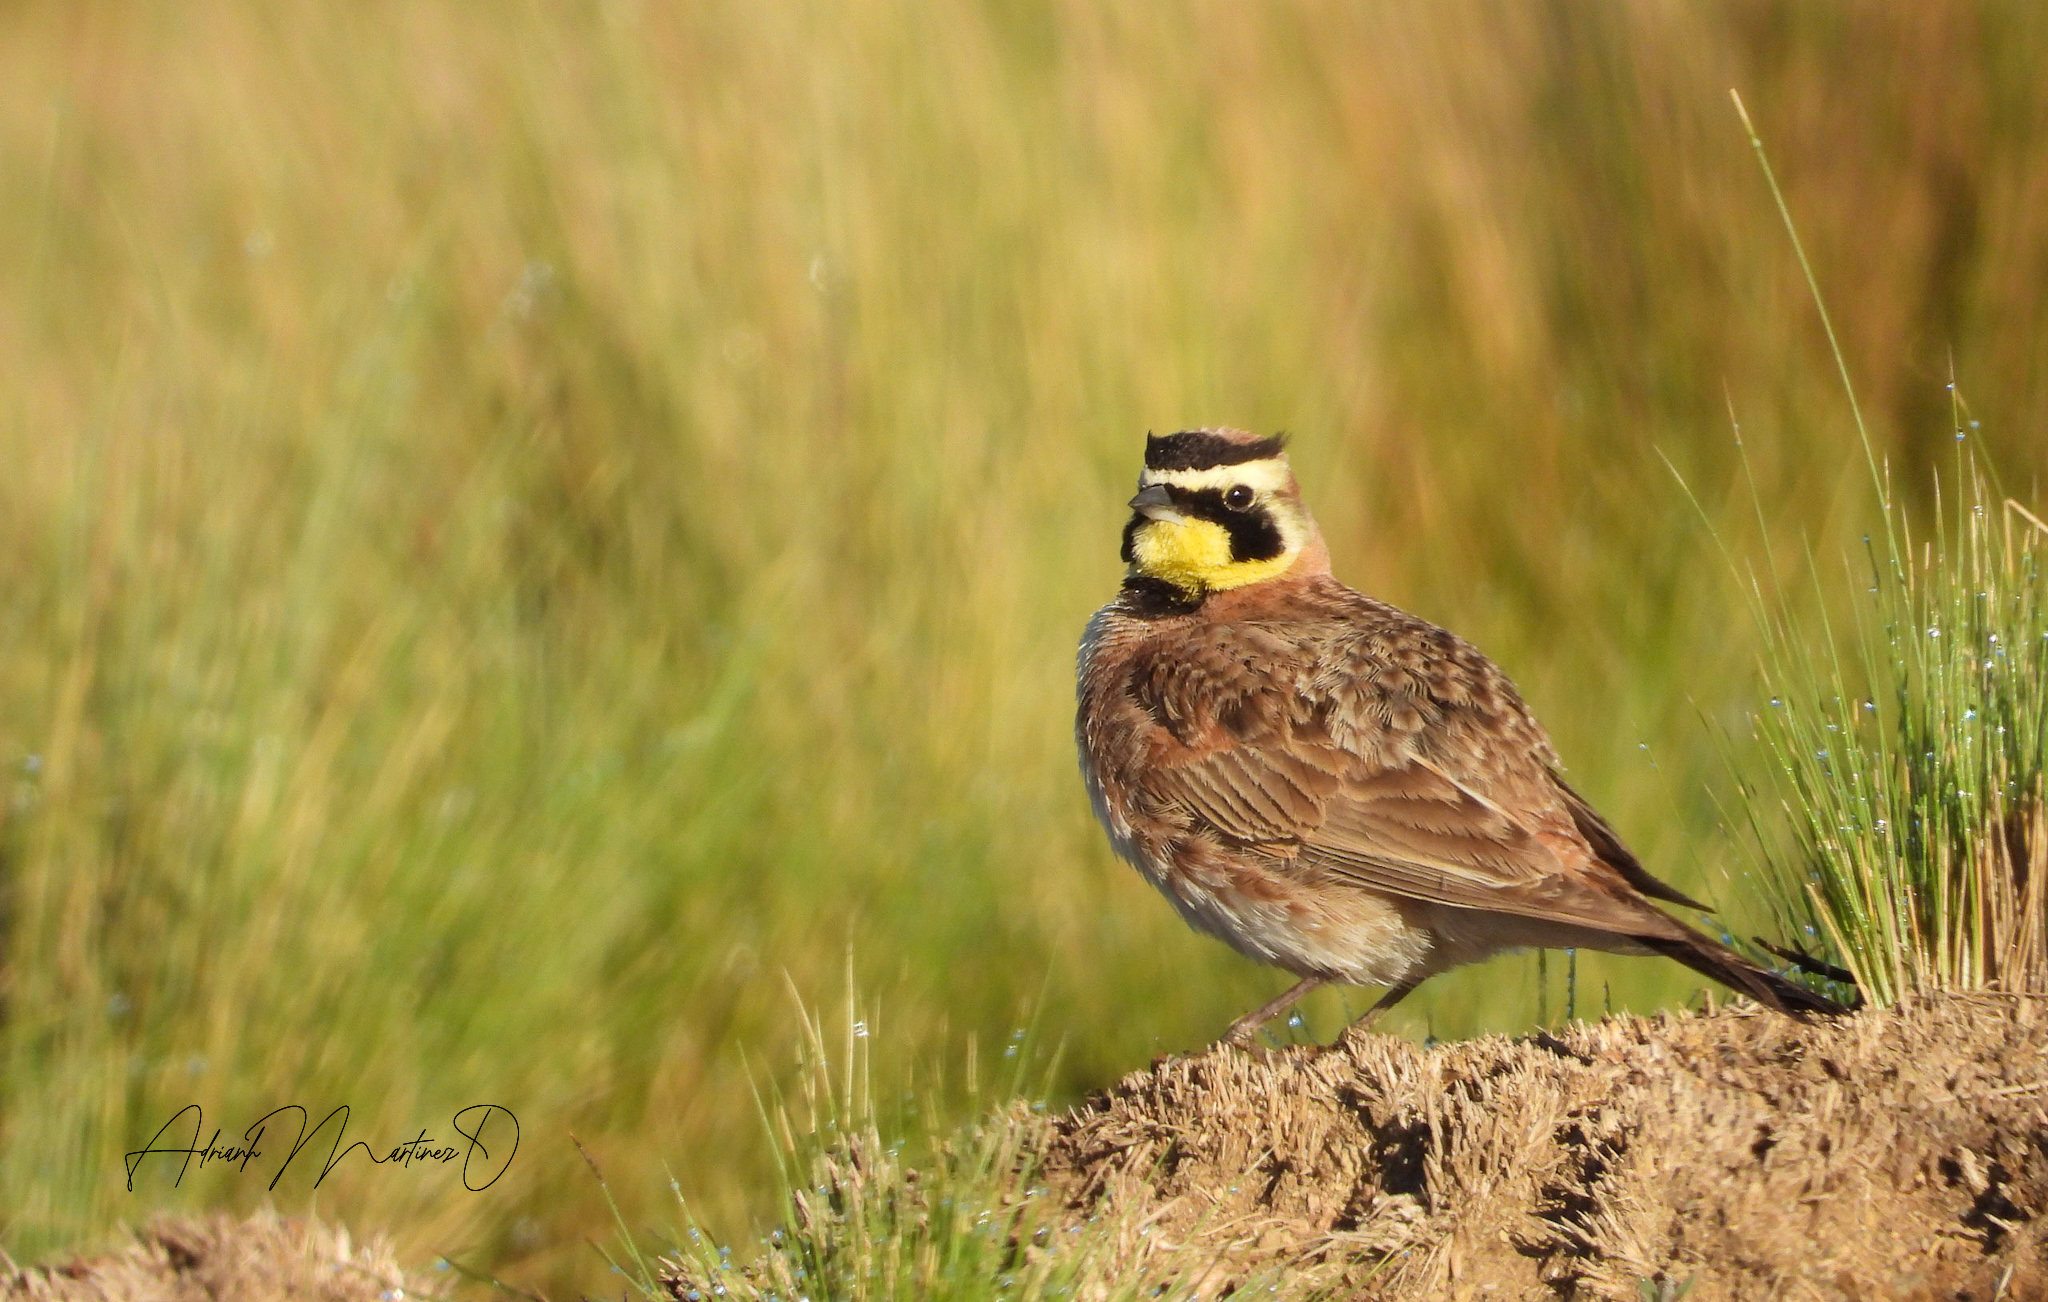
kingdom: Animalia
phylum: Chordata
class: Aves
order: Passeriformes
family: Alaudidae
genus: Eremophila
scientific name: Eremophila alpestris
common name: Horned lark
